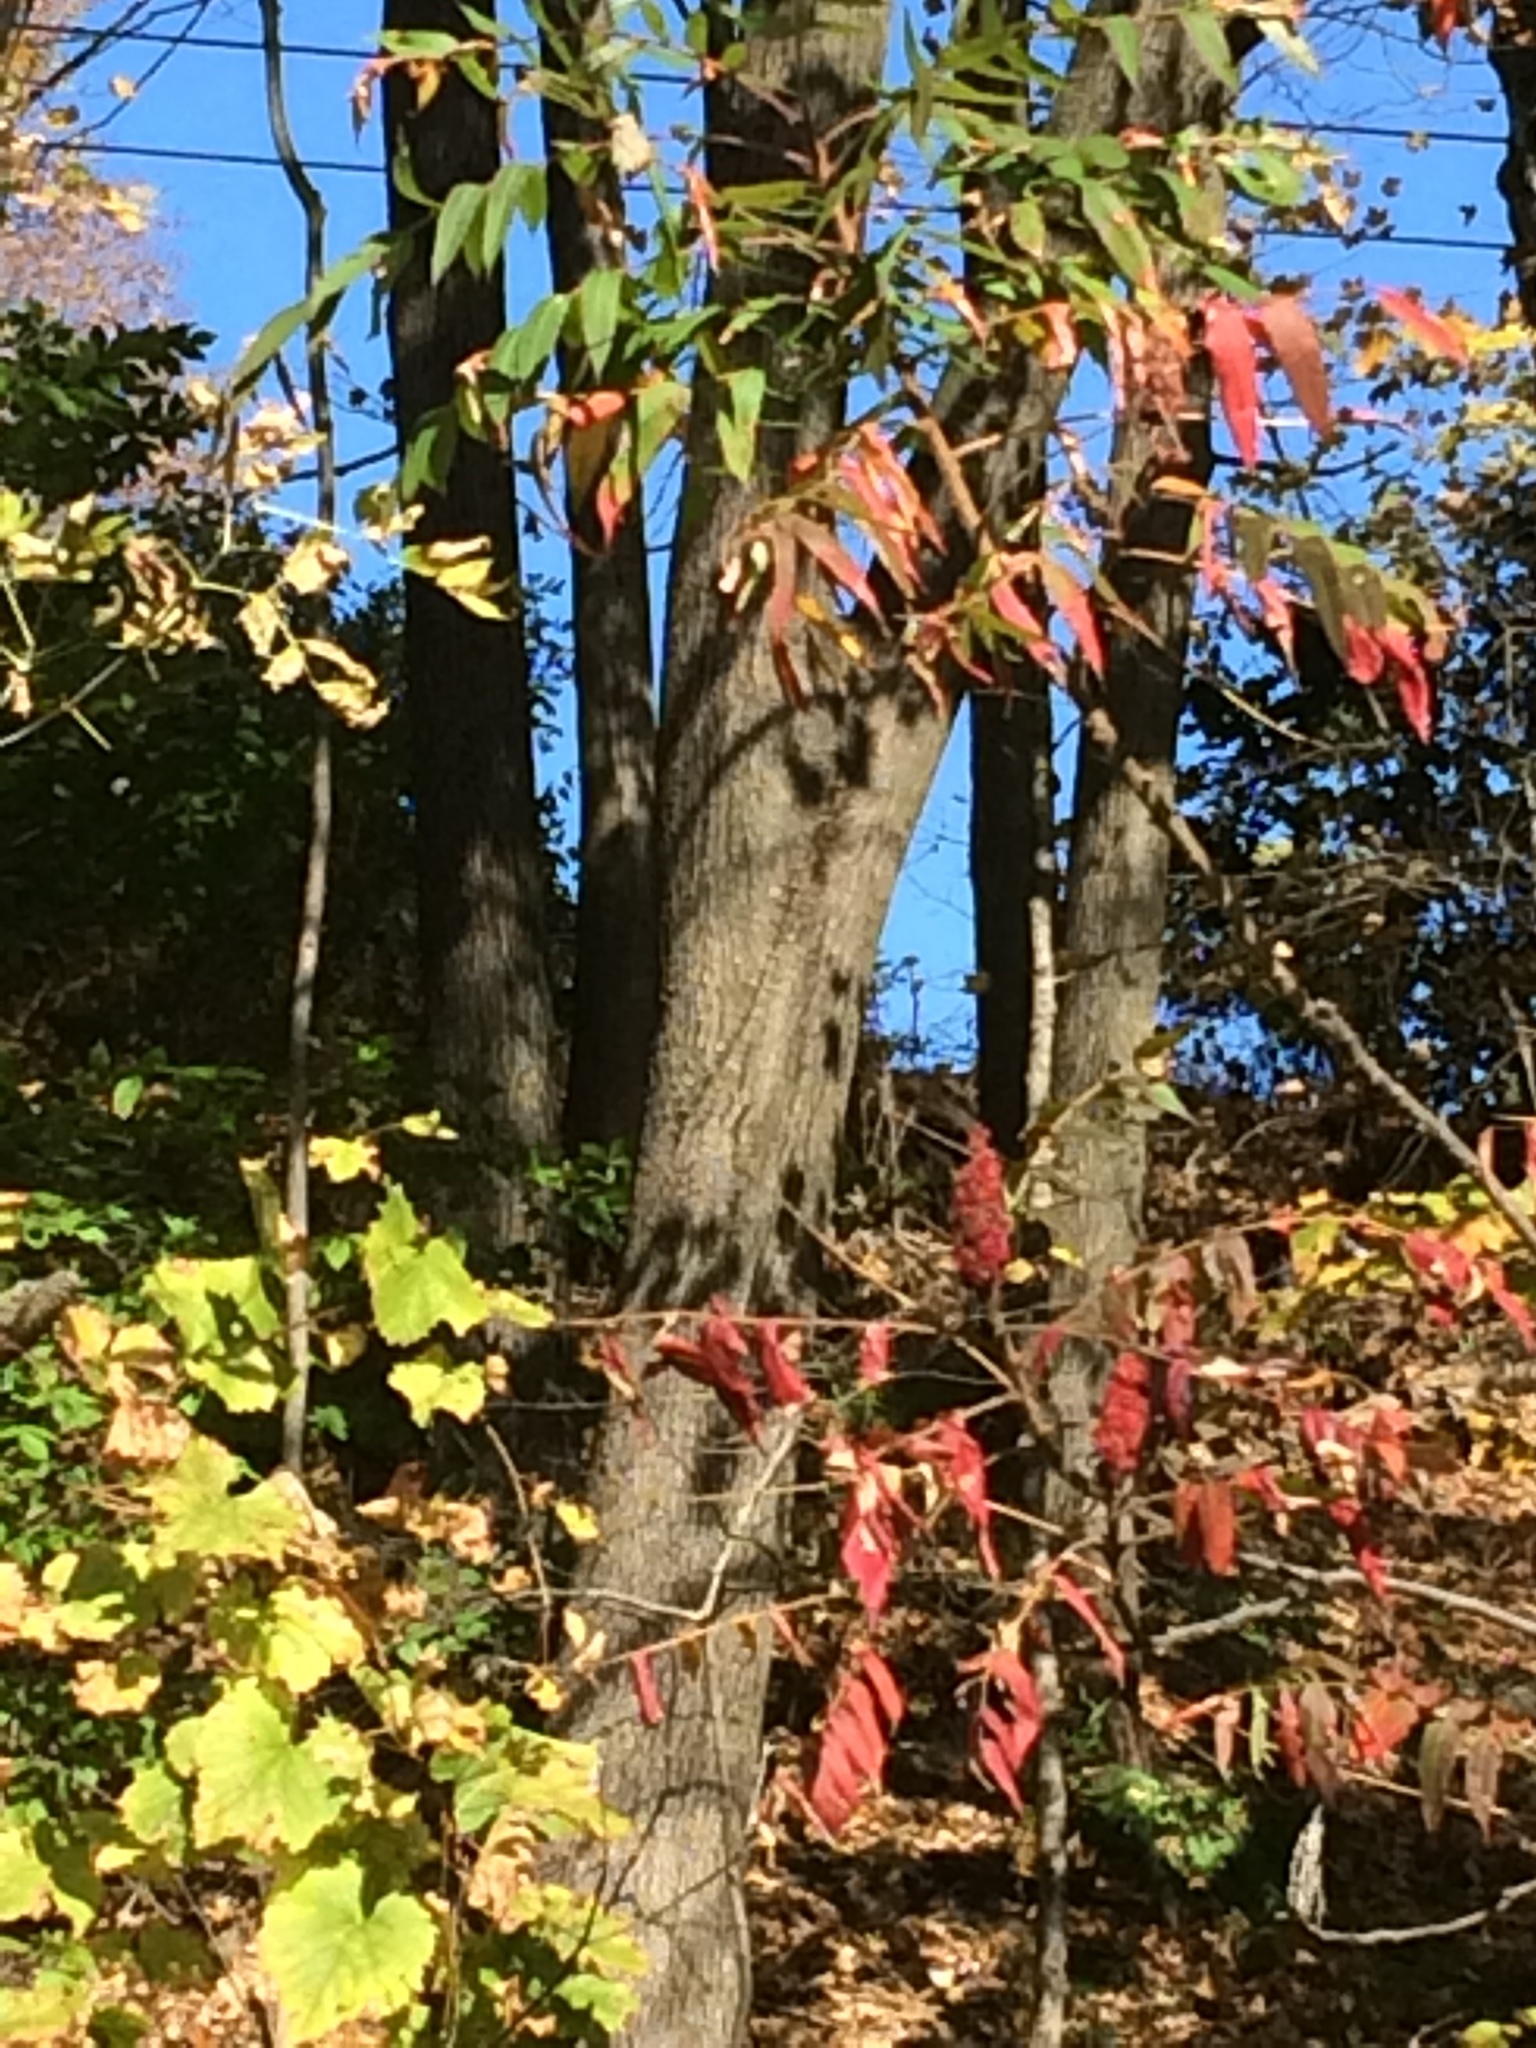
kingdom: Plantae
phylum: Tracheophyta
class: Magnoliopsida
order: Fagales
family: Fagaceae
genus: Quercus
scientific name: Quercus velutina
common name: Black oak
